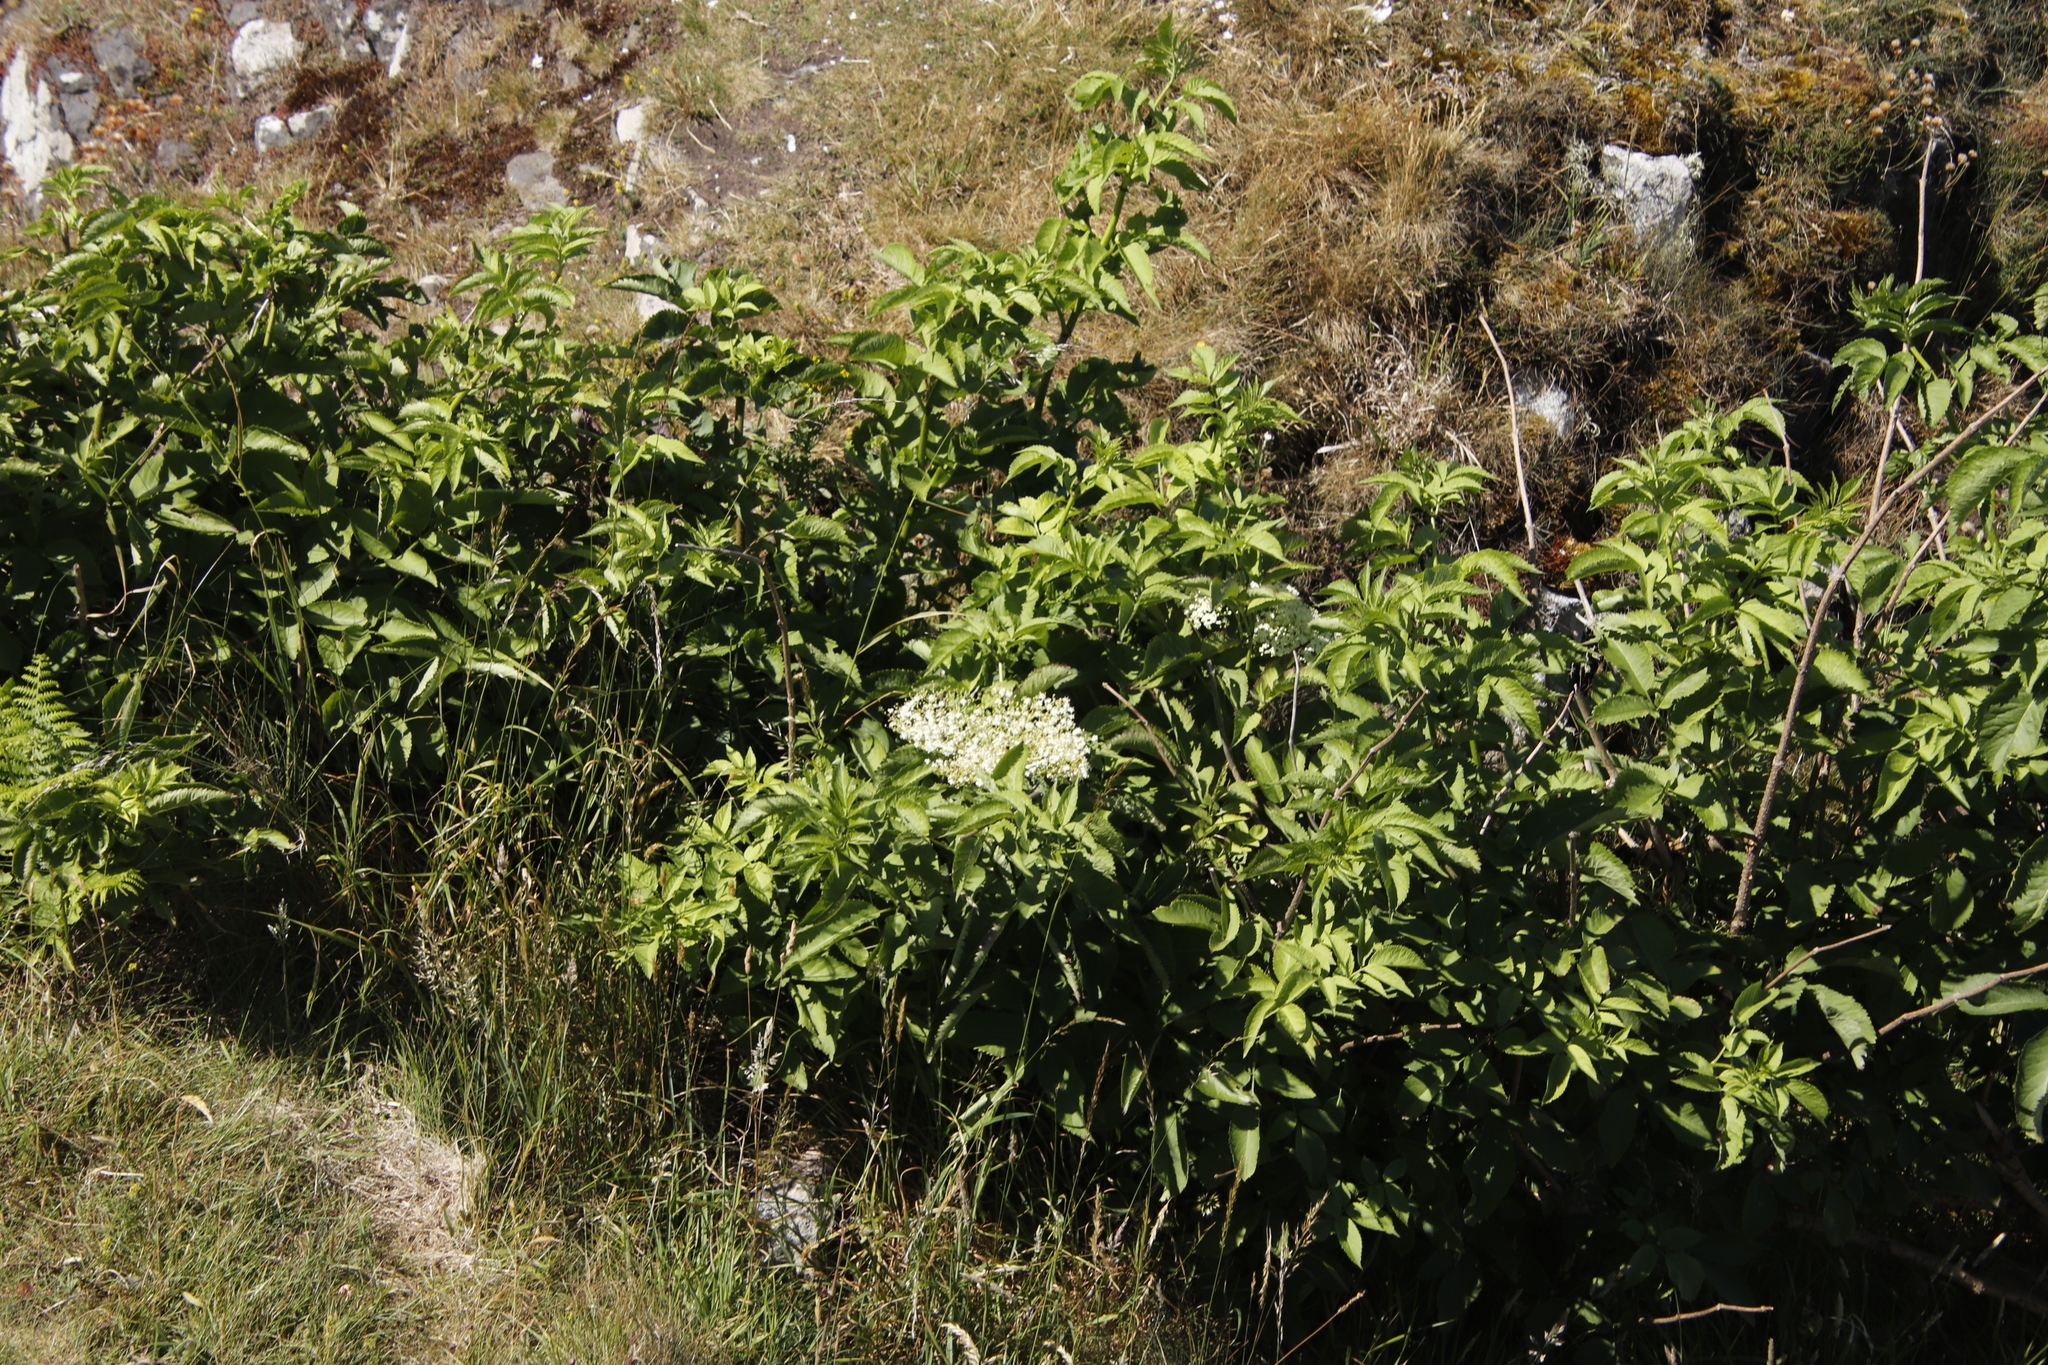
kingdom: Plantae
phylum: Tracheophyta
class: Magnoliopsida
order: Dipsacales
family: Viburnaceae
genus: Sambucus
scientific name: Sambucus nigra
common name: Elder
